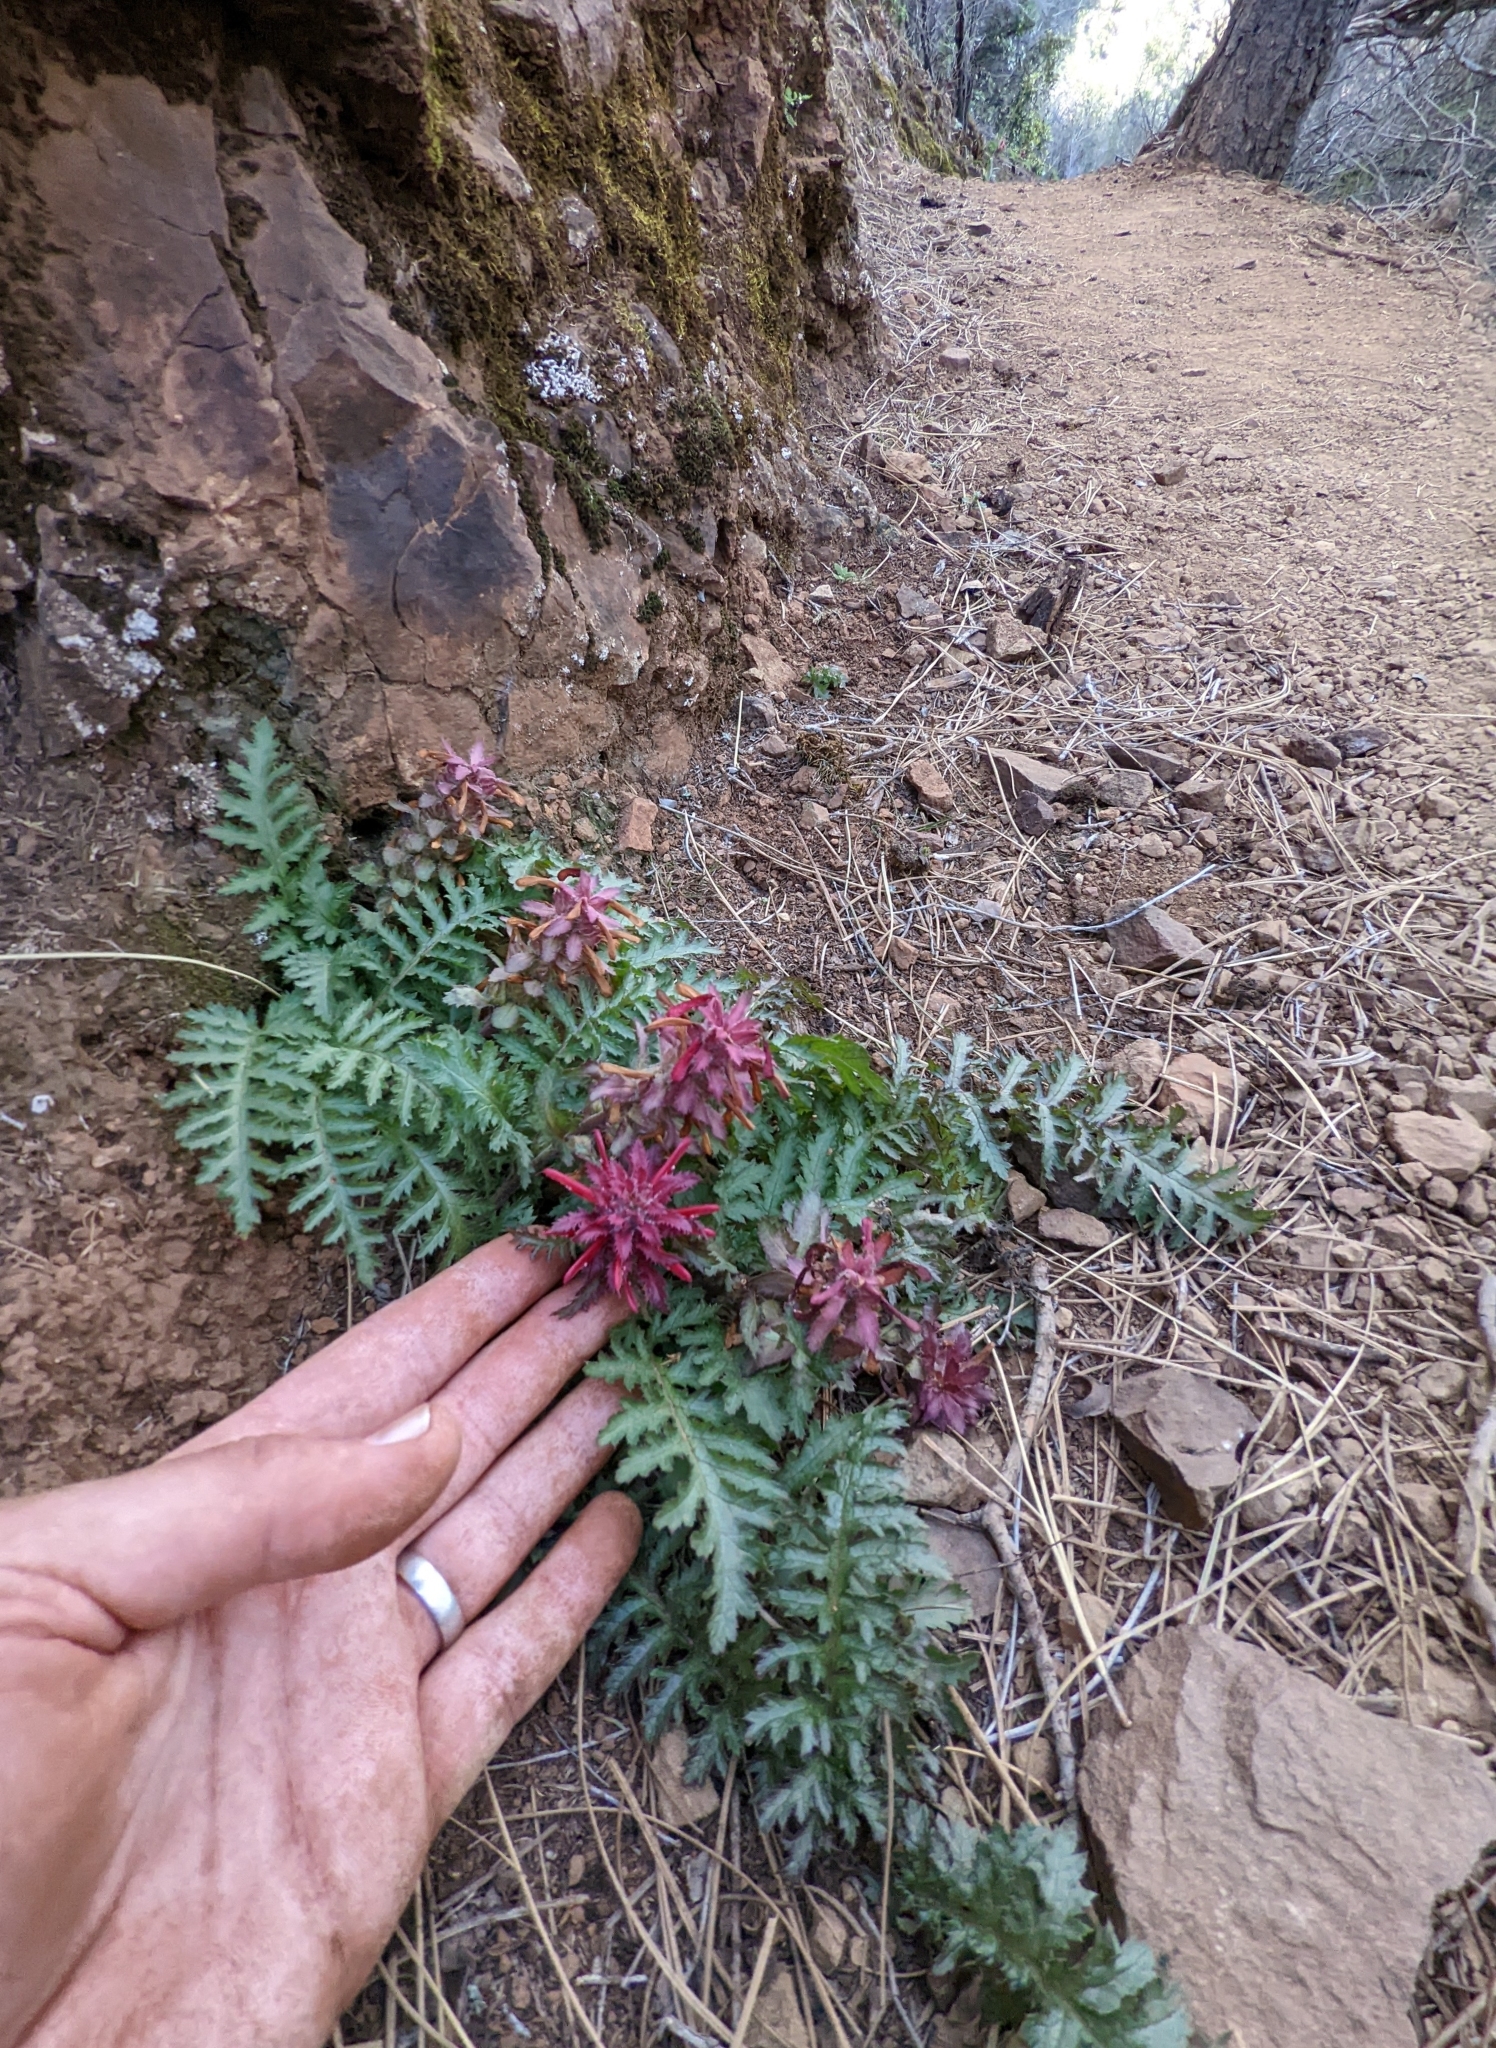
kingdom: Plantae
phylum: Tracheophyta
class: Magnoliopsida
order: Lamiales
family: Orobanchaceae
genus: Pedicularis
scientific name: Pedicularis densiflora
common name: Indian warrior
